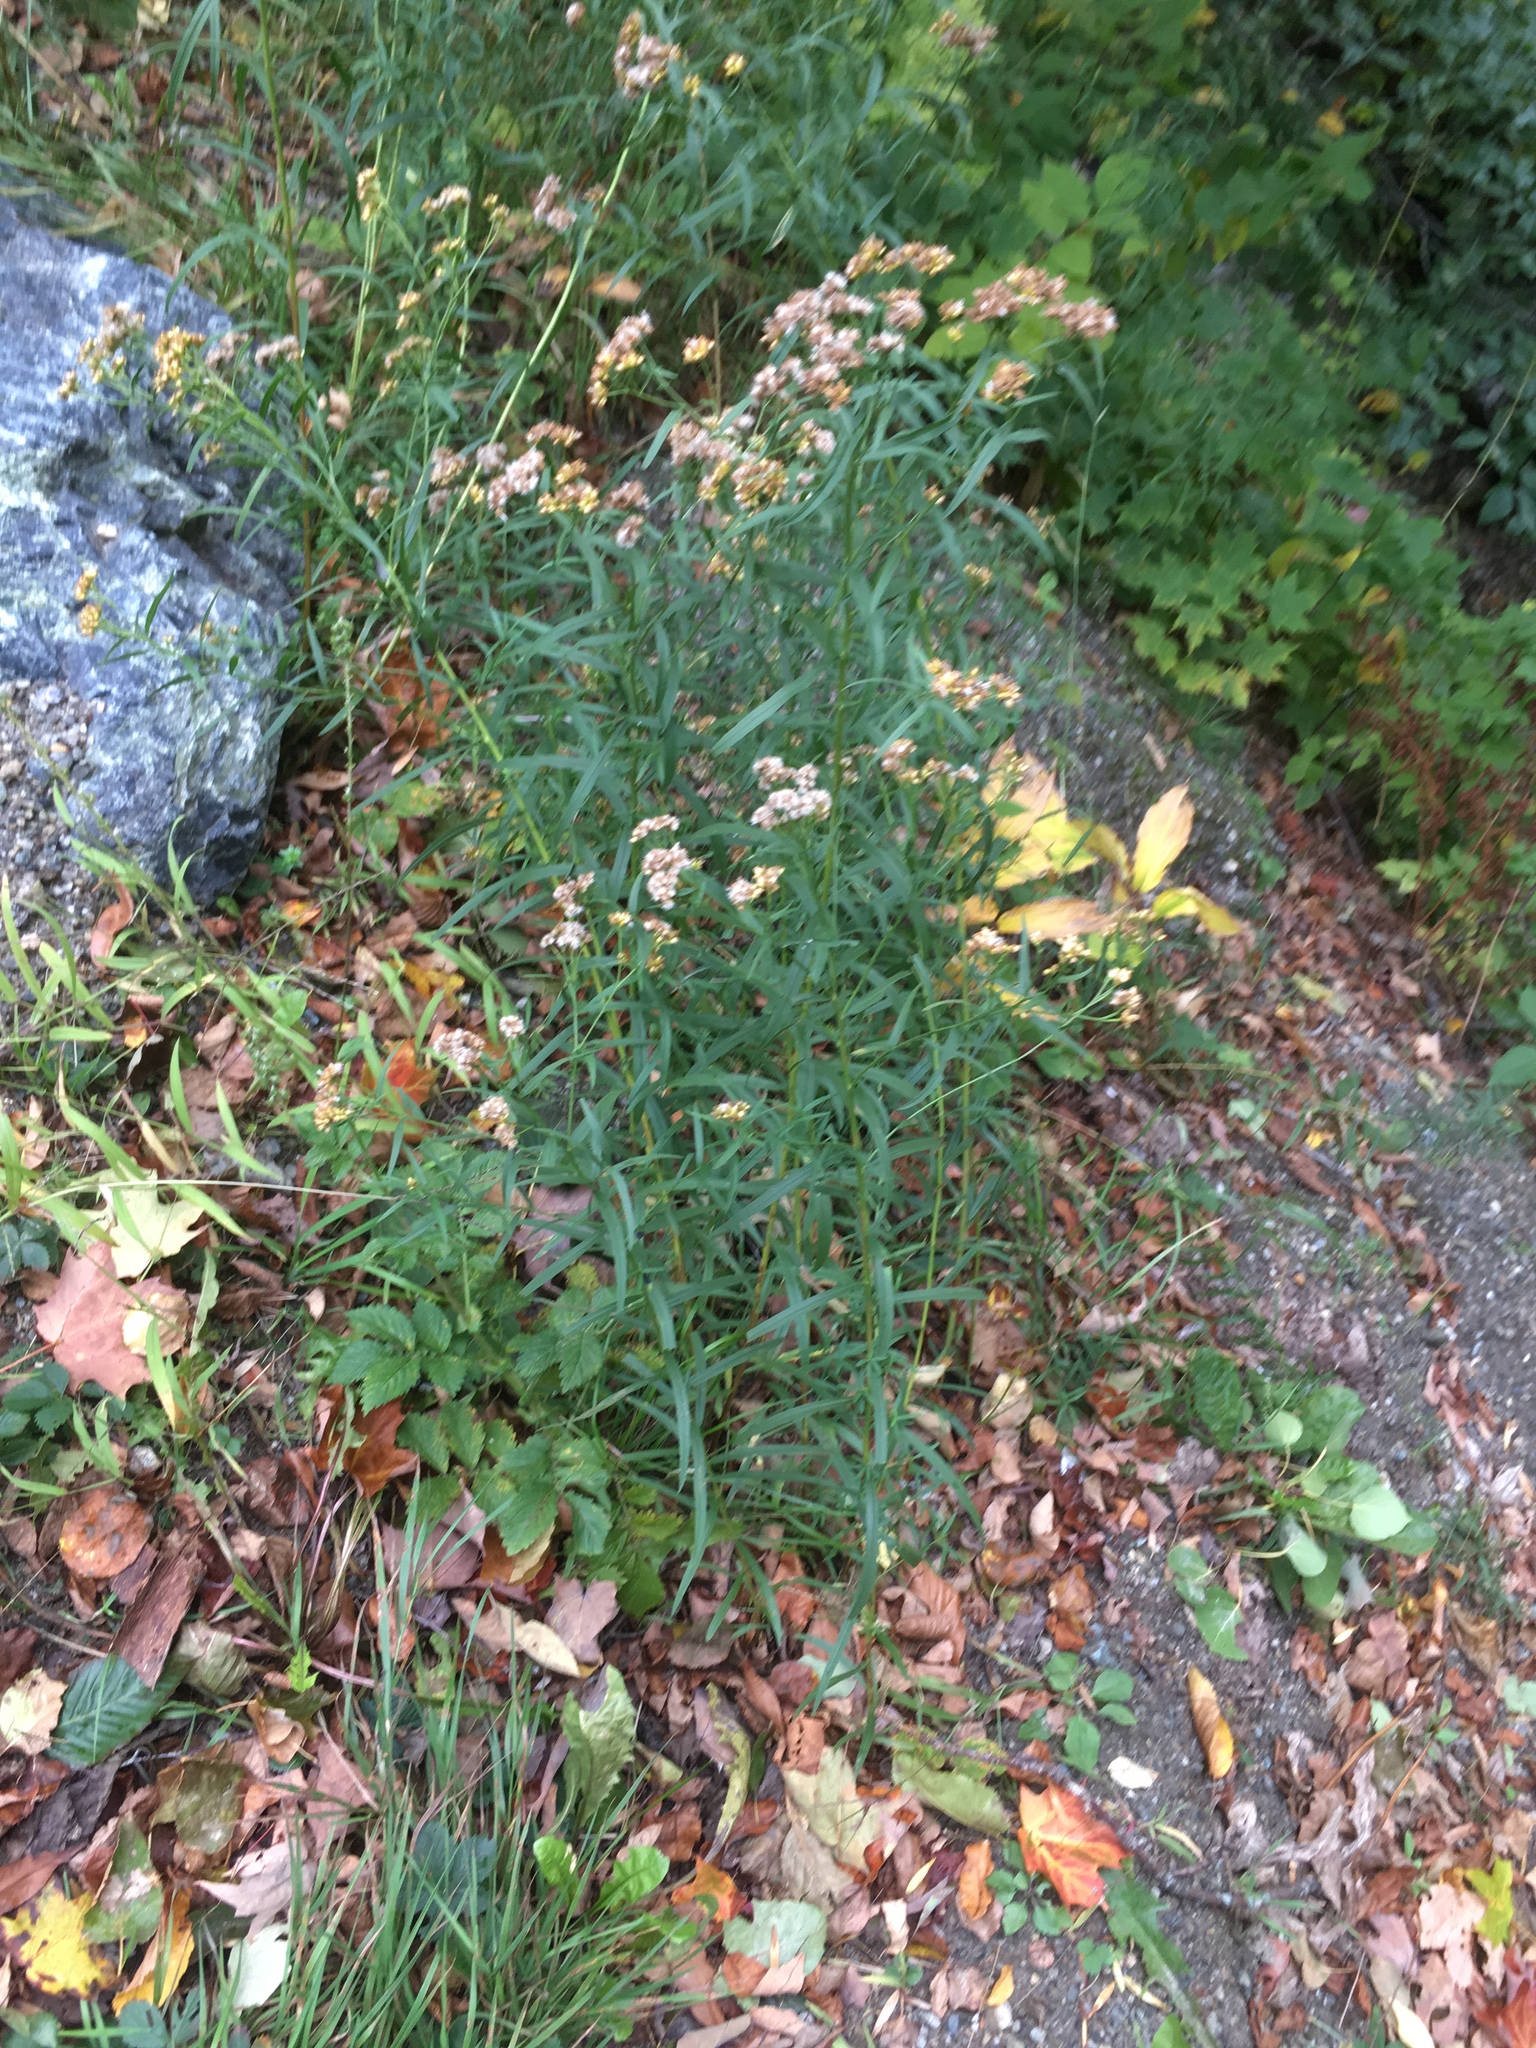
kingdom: Plantae
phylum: Tracheophyta
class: Magnoliopsida
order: Asterales
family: Asteraceae
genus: Euthamia
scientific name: Euthamia graminifolia
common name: Common goldentop
